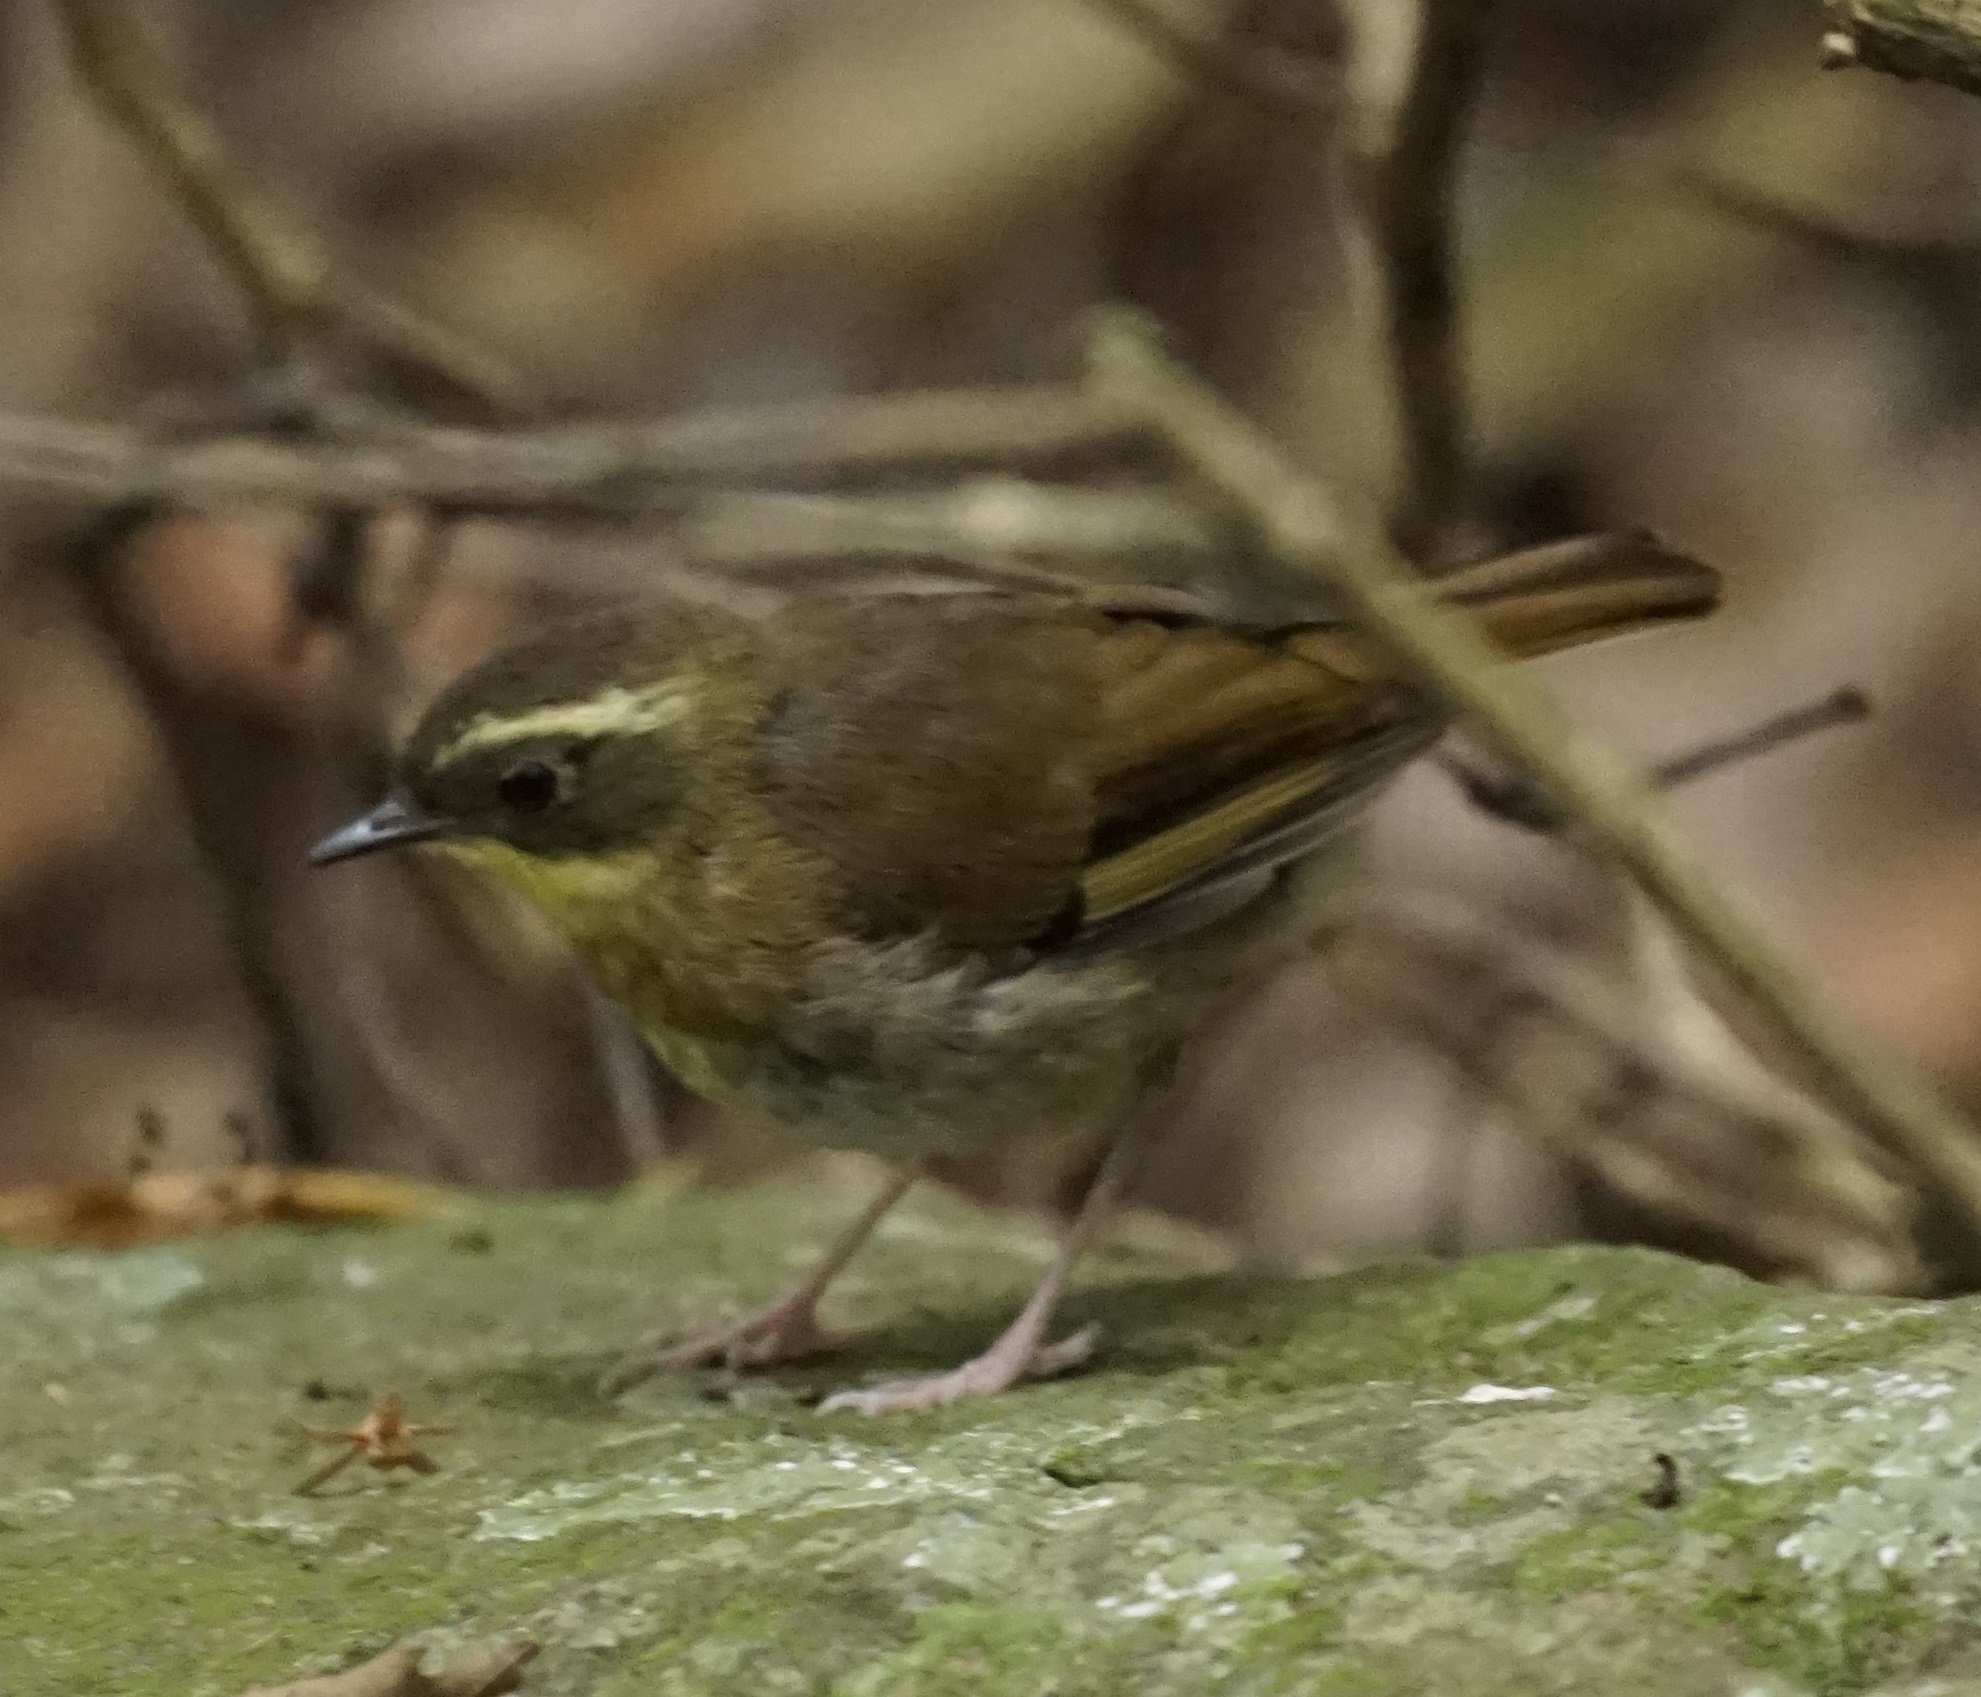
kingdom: Animalia
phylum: Chordata
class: Aves
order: Passeriformes
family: Acanthizidae
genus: Sericornis
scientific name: Sericornis citreogularis
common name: Yellow-throated scrubwren
